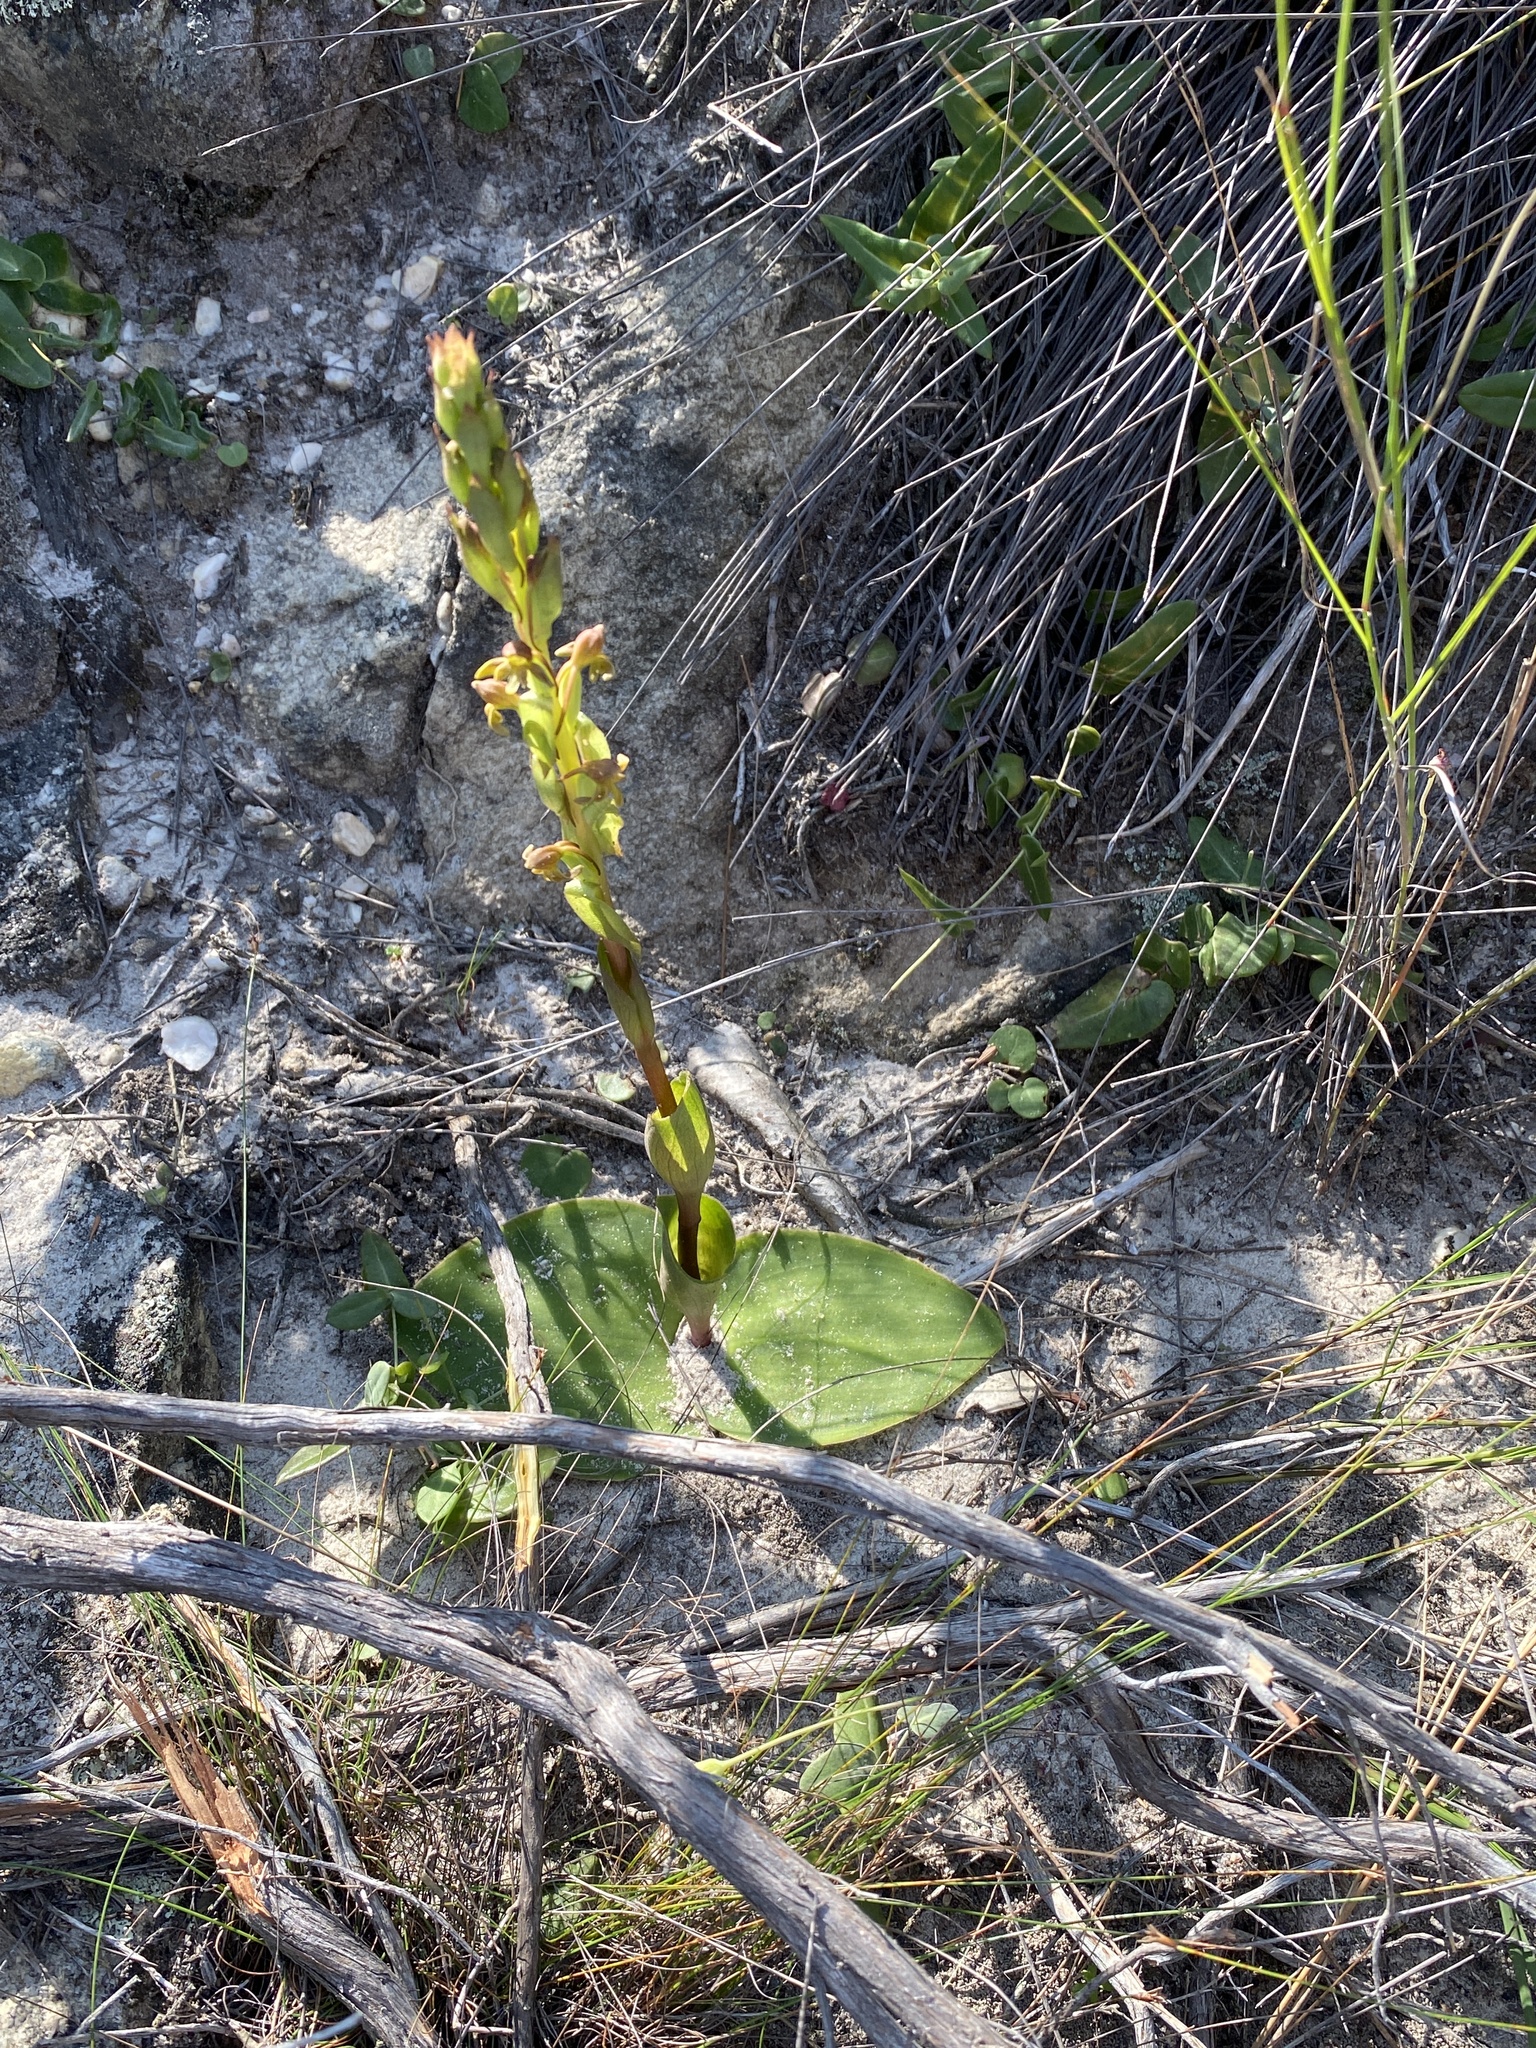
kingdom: Plantae
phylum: Tracheophyta
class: Liliopsida
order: Asparagales
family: Orchidaceae
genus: Satyrium
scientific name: Satyrium bicorne
